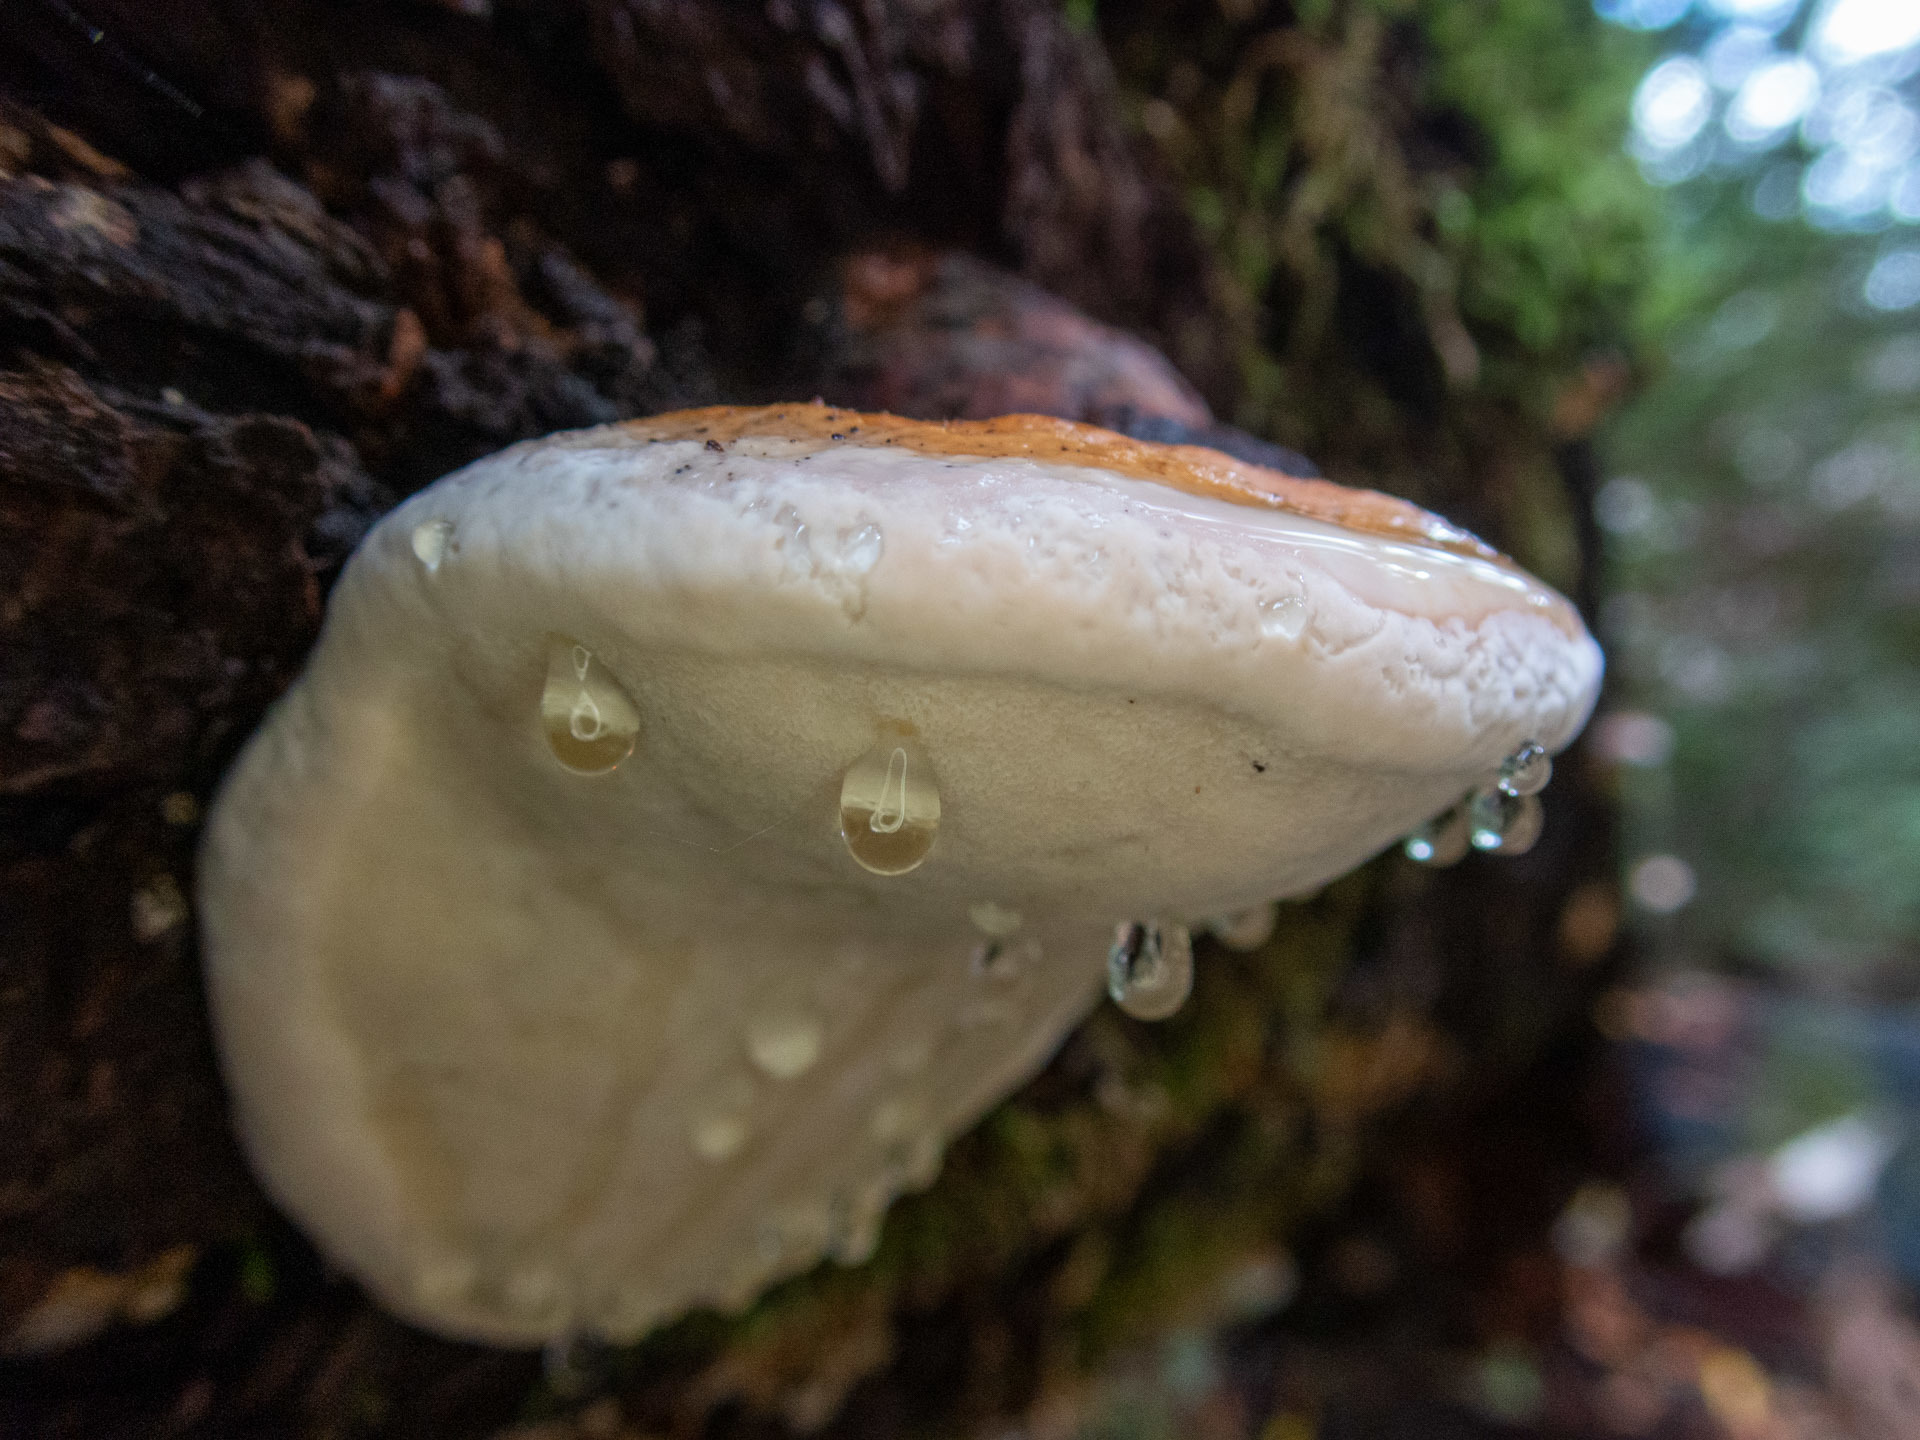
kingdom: Fungi
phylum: Basidiomycota
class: Agaricomycetes
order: Polyporales
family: Fomitopsidaceae
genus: Fomitopsis
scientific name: Fomitopsis mounceae
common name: Northern red belt
